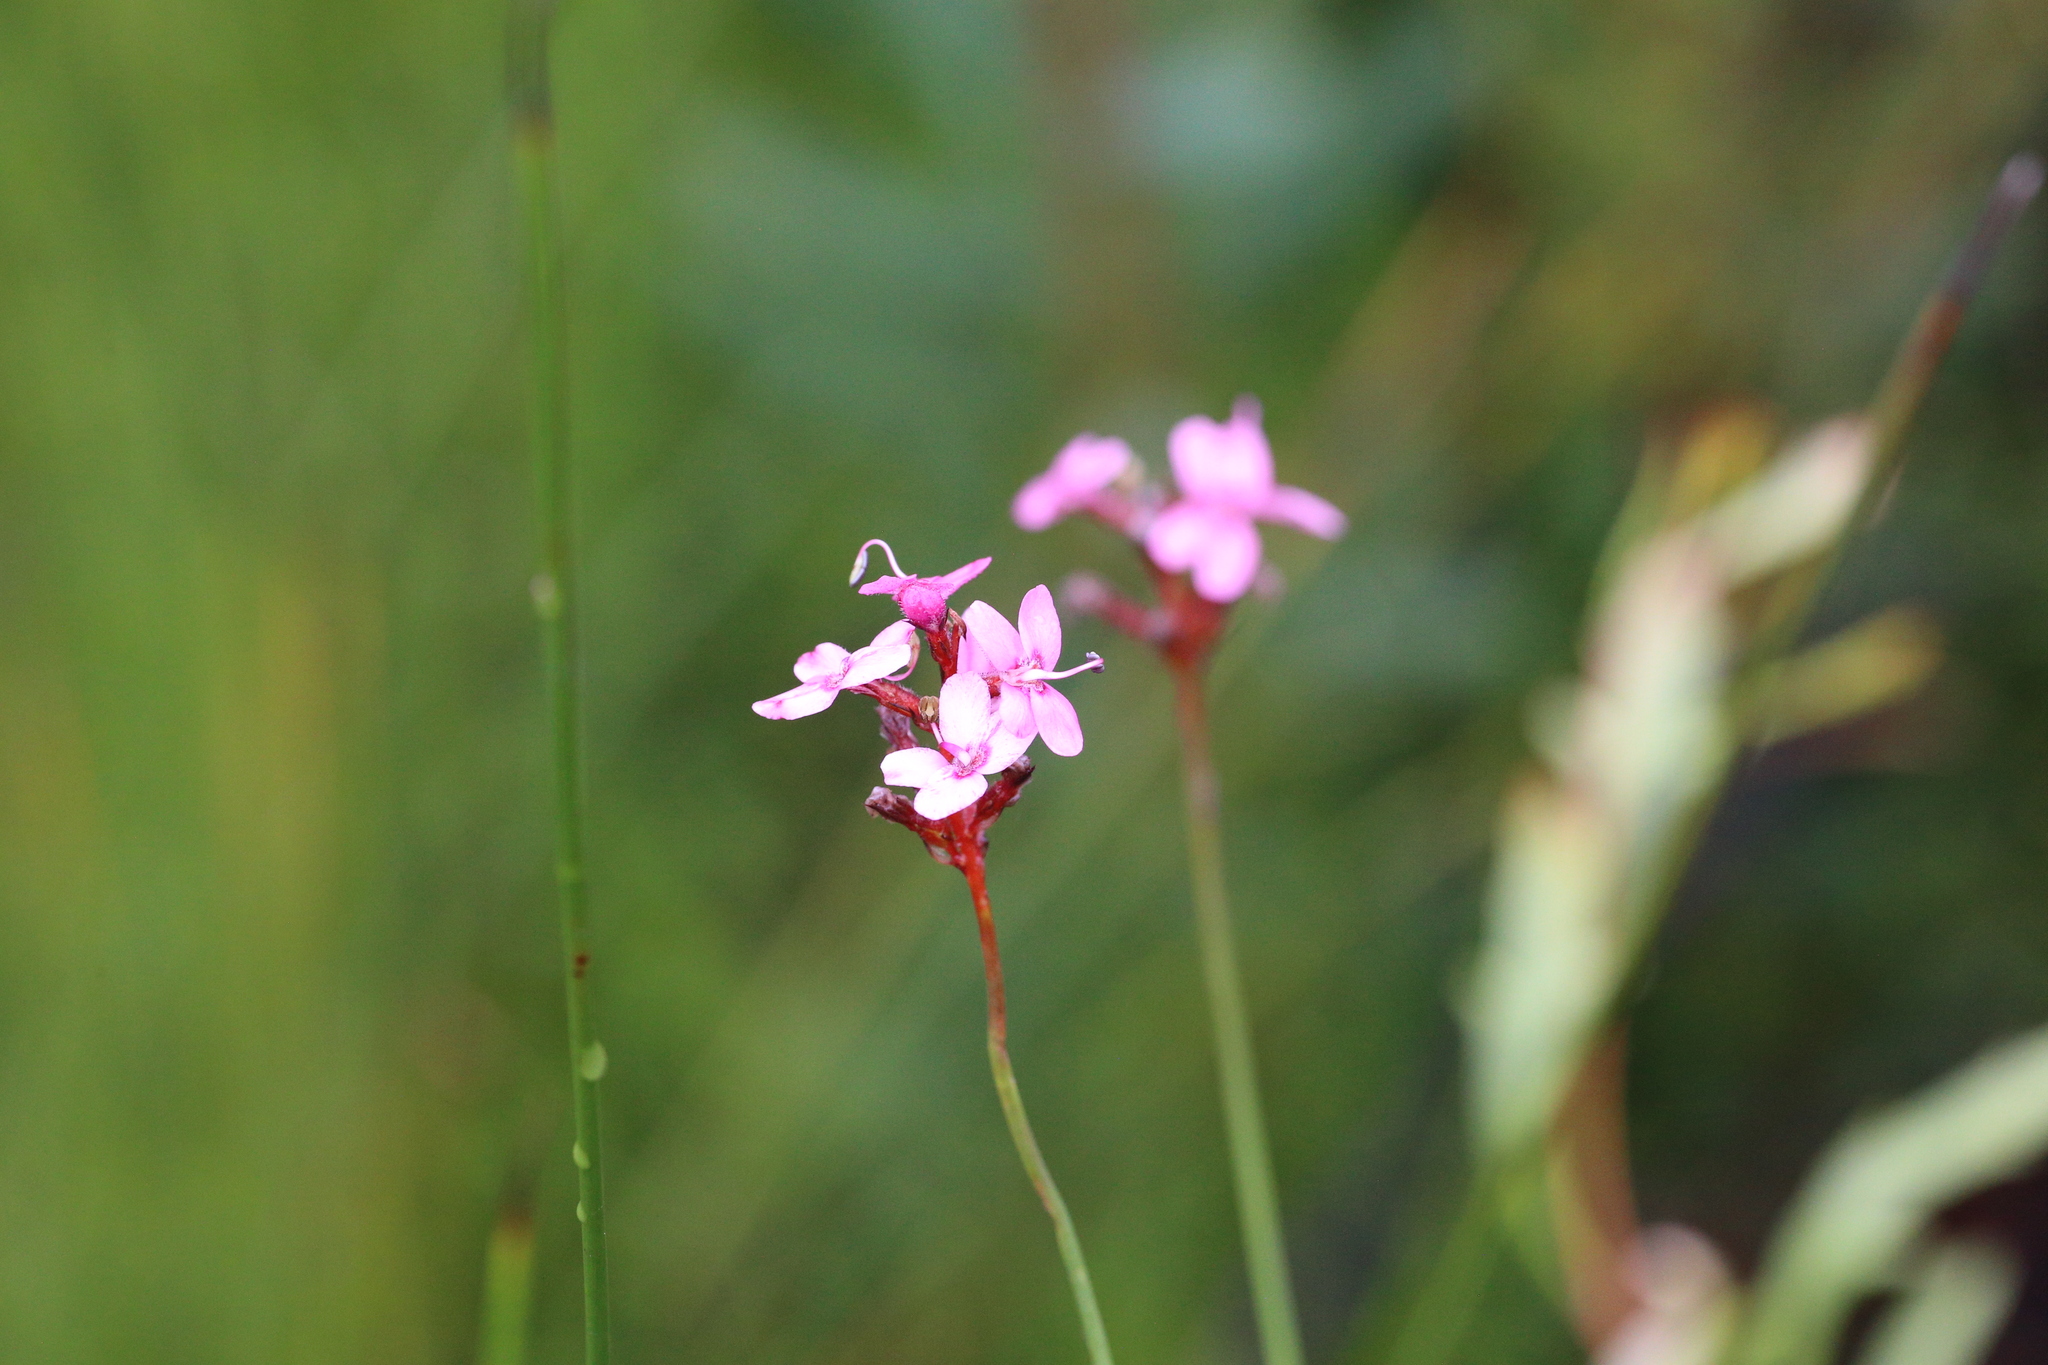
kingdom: Plantae
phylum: Tracheophyta
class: Magnoliopsida
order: Asterales
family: Stylidiaceae
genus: Stylidium
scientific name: Stylidium squamosotuberosum
